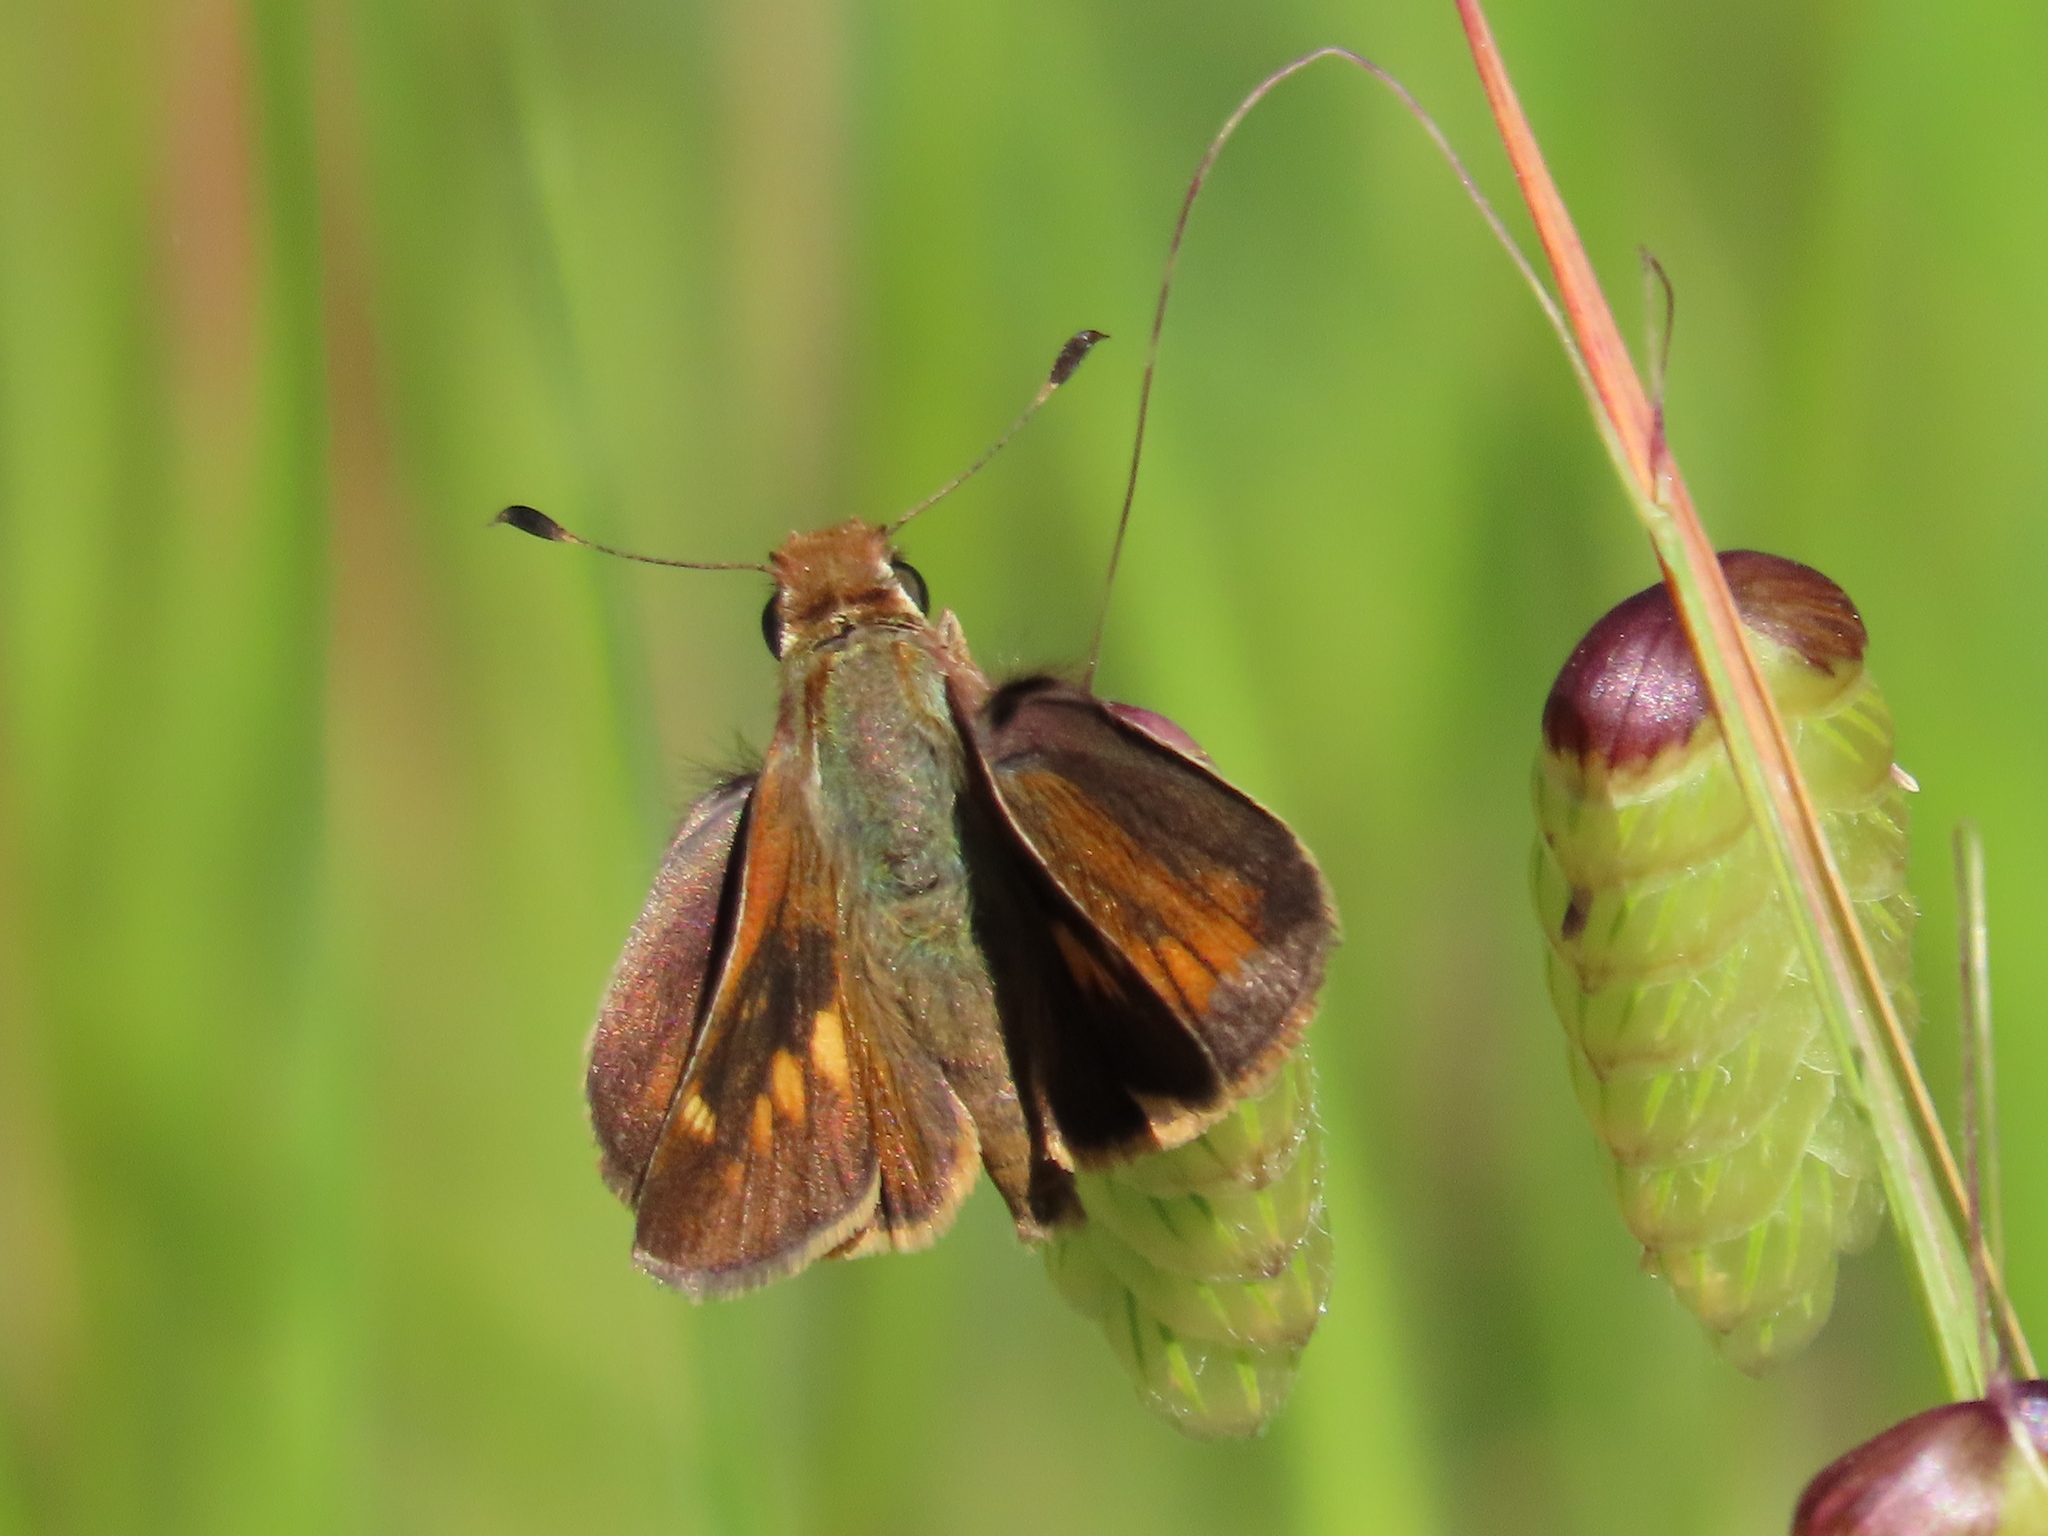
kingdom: Animalia
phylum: Arthropoda
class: Insecta
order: Lepidoptera
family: Hesperiidae
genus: Lon
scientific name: Lon melane
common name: Umber skipper
